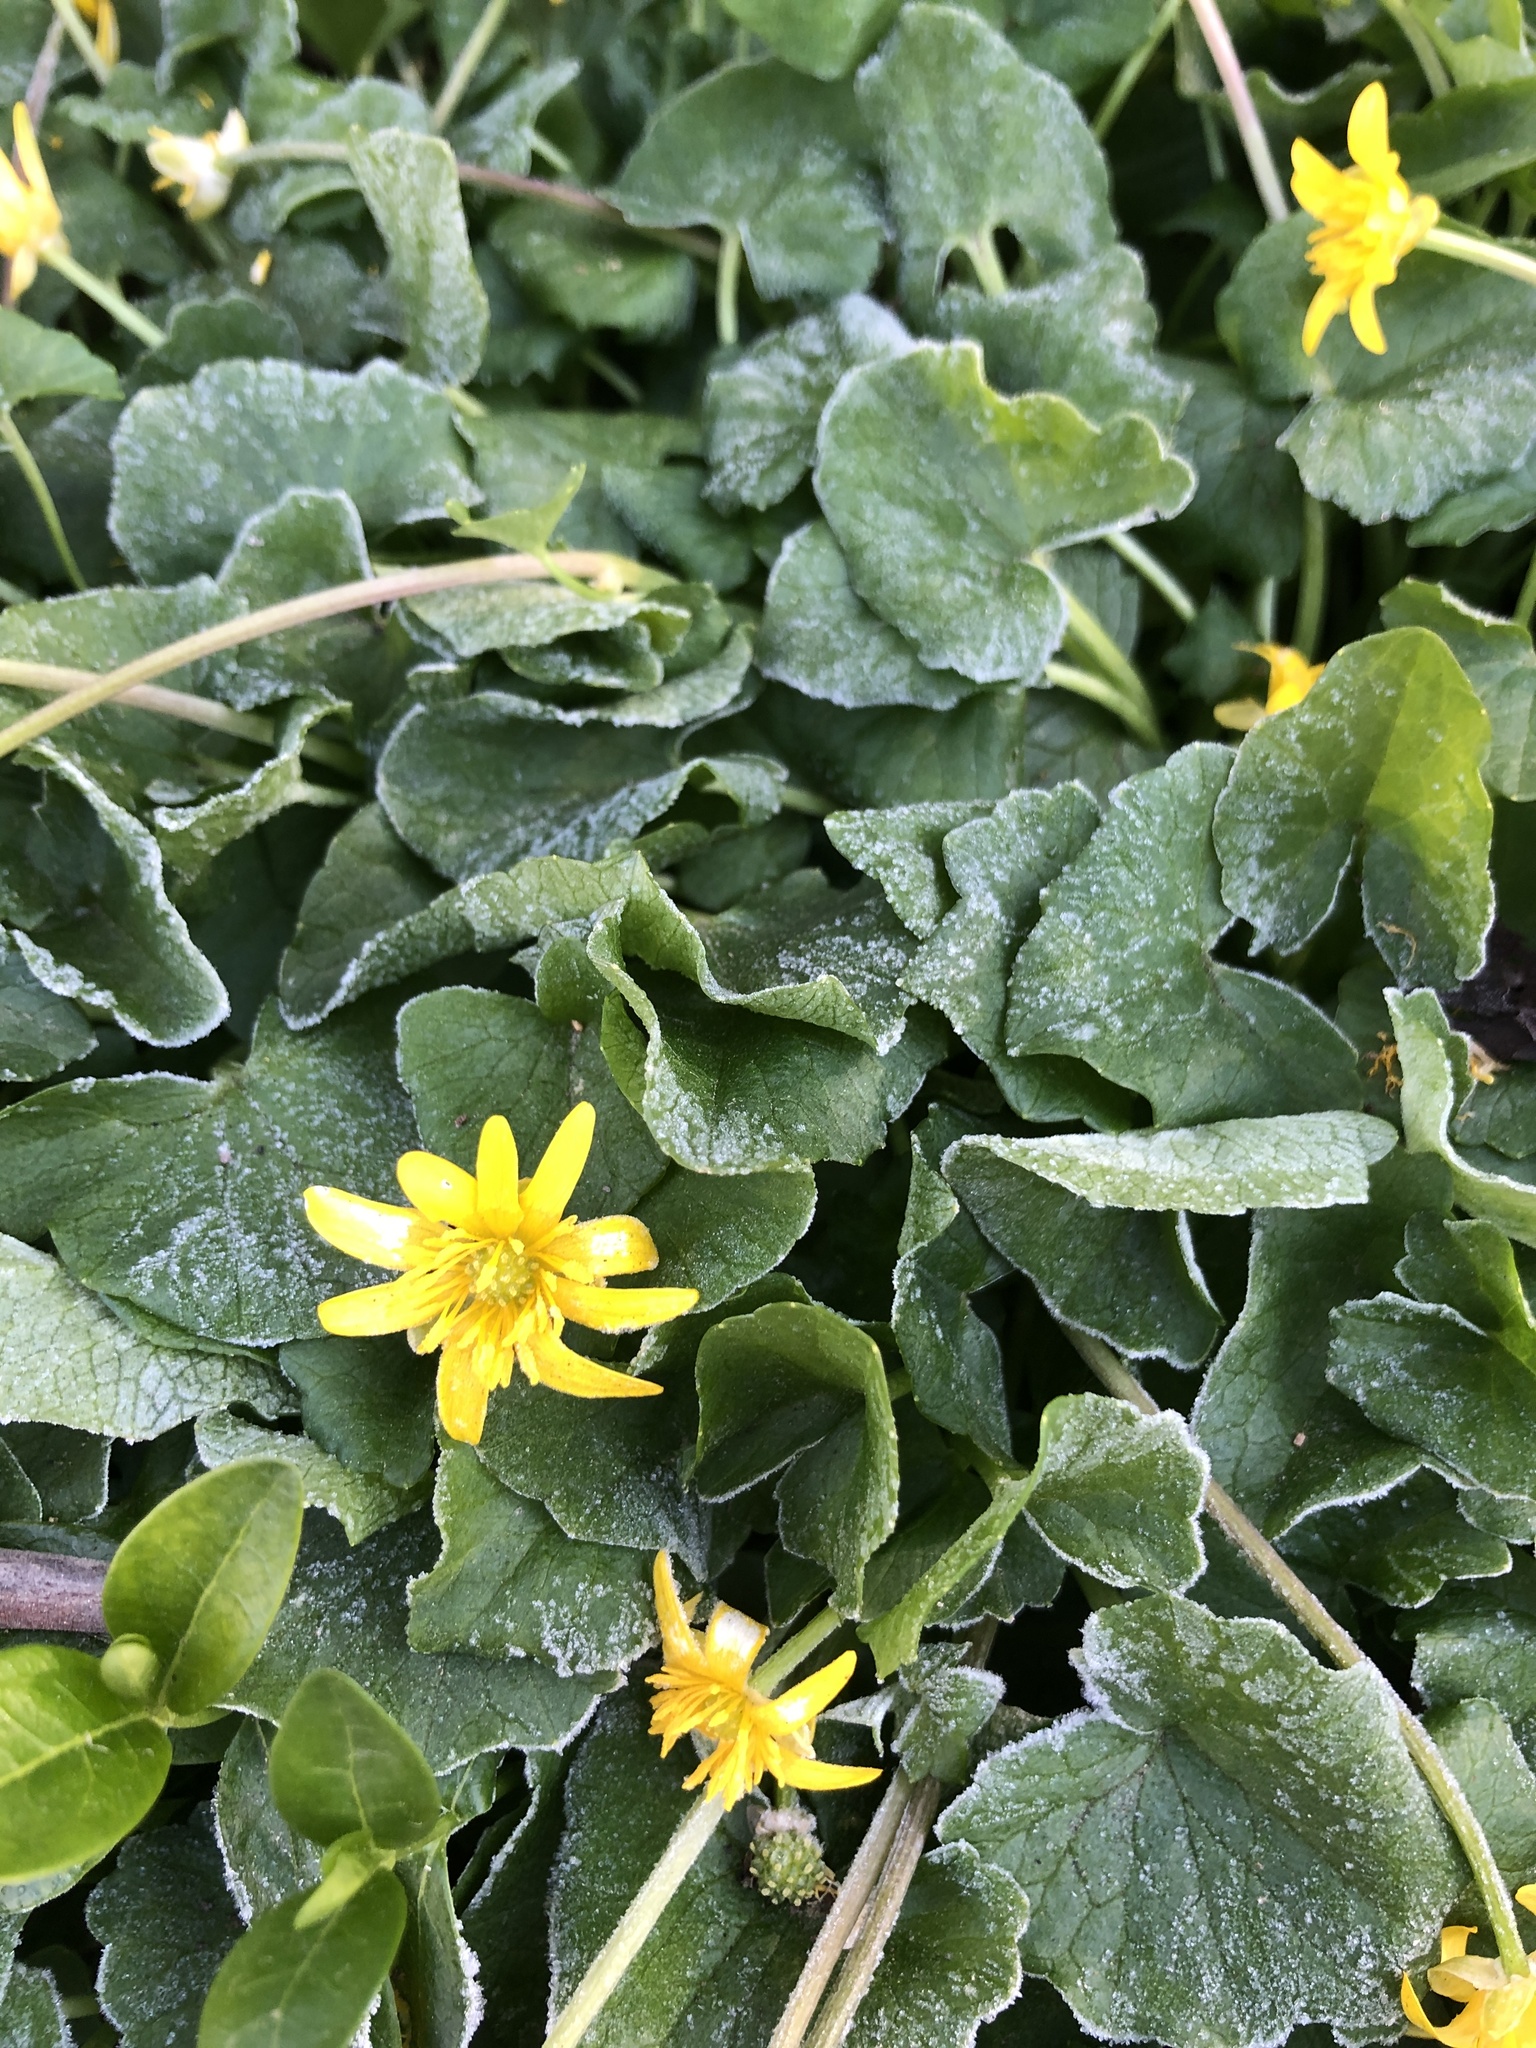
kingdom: Plantae
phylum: Tracheophyta
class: Magnoliopsida
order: Ranunculales
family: Ranunculaceae
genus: Ficaria
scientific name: Ficaria verna
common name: Lesser celandine
